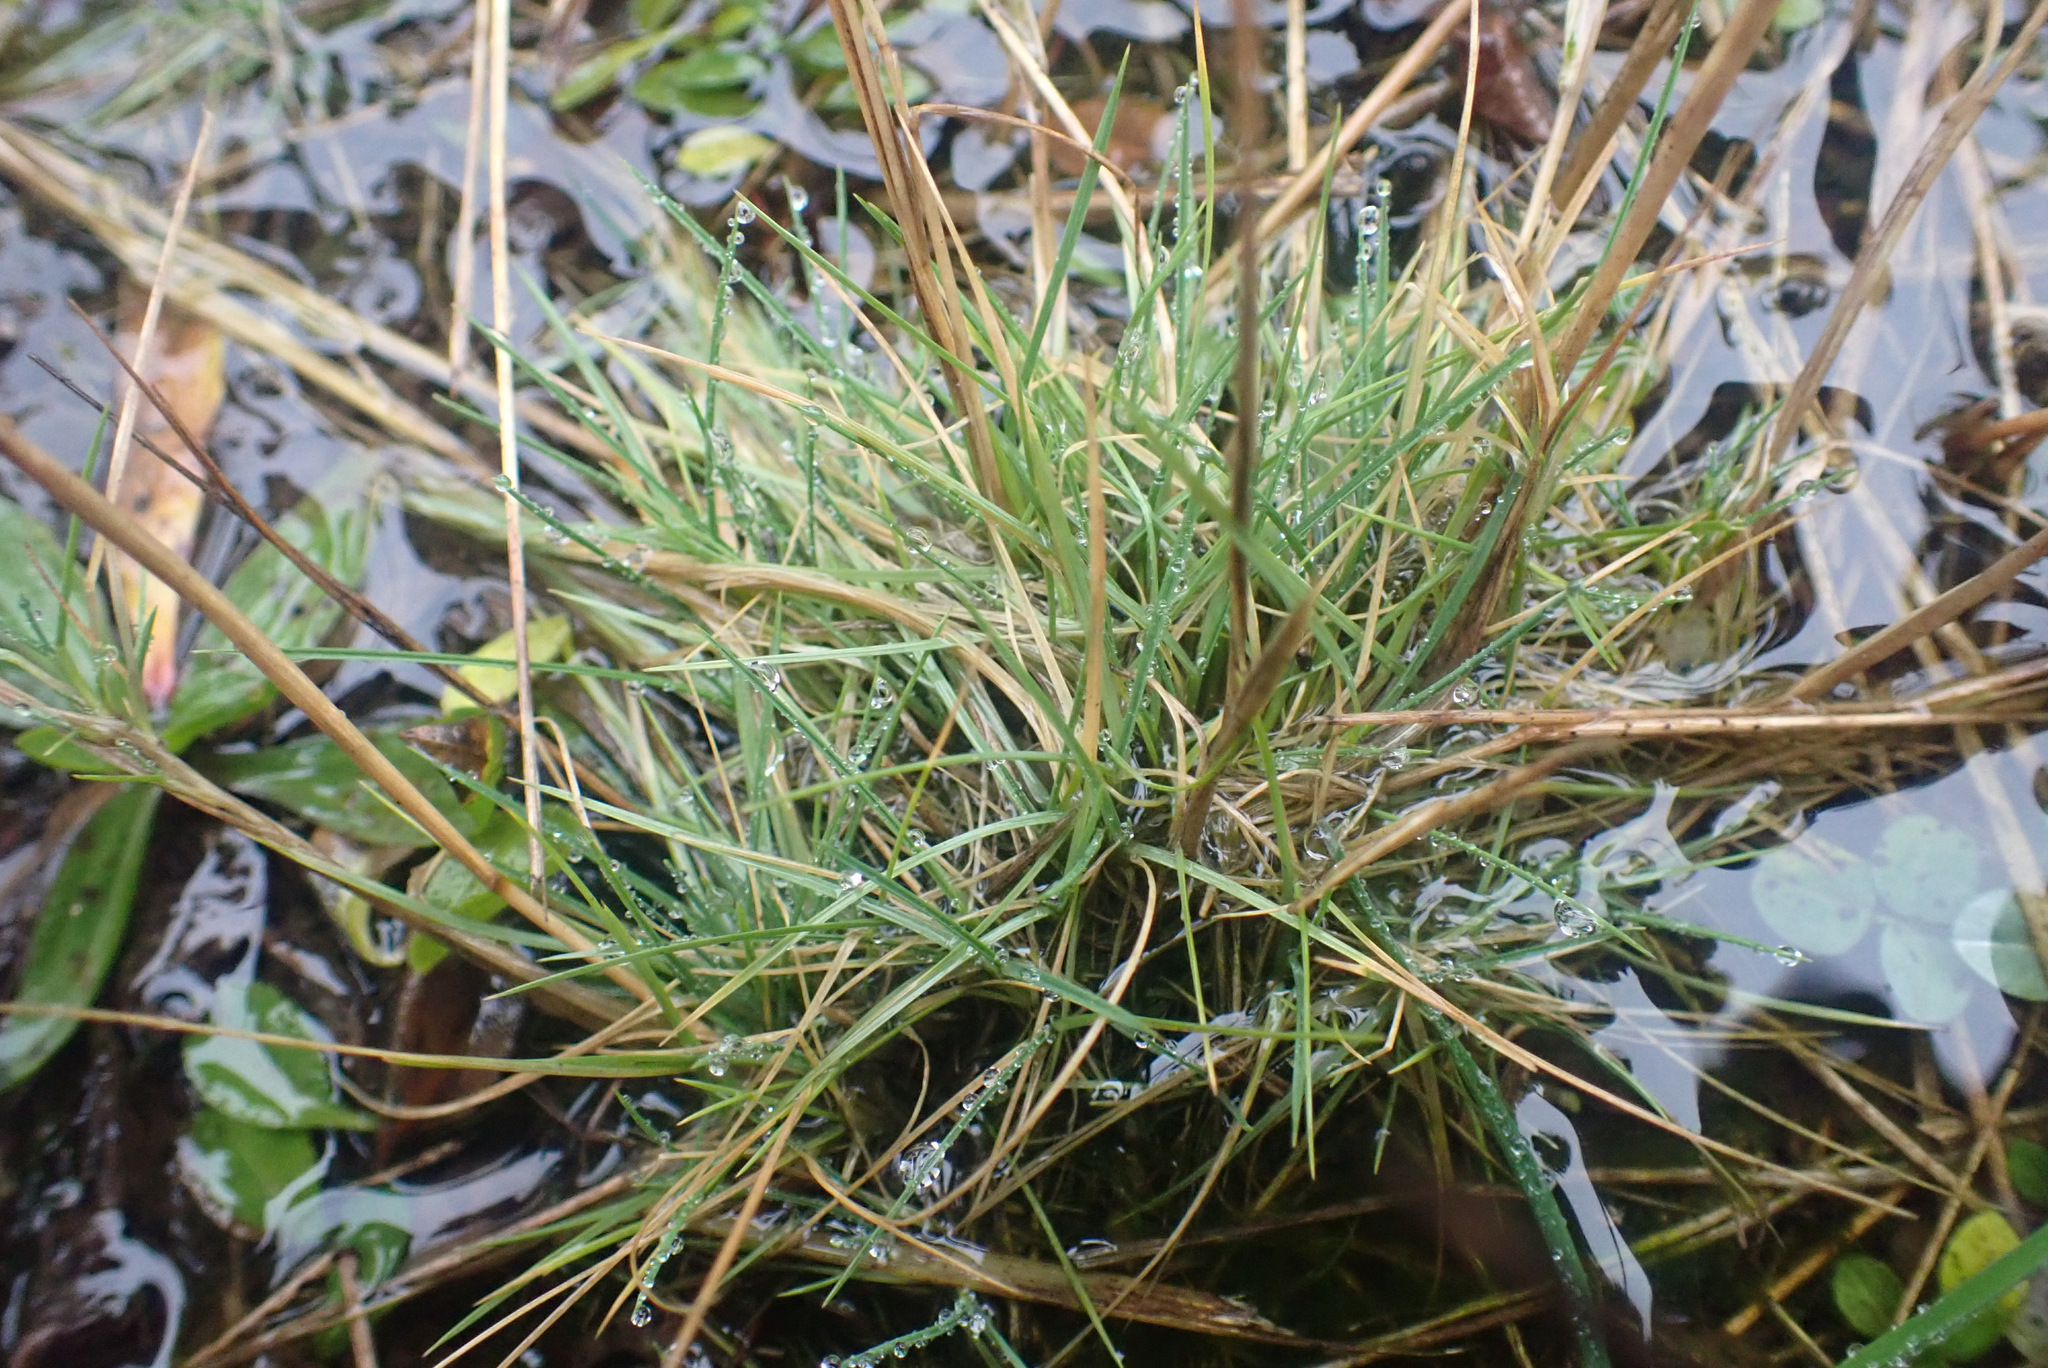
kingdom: Plantae
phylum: Tracheophyta
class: Liliopsida
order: Poales
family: Poaceae
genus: Agrostis
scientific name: Agrostis canina
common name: Velvet bent
